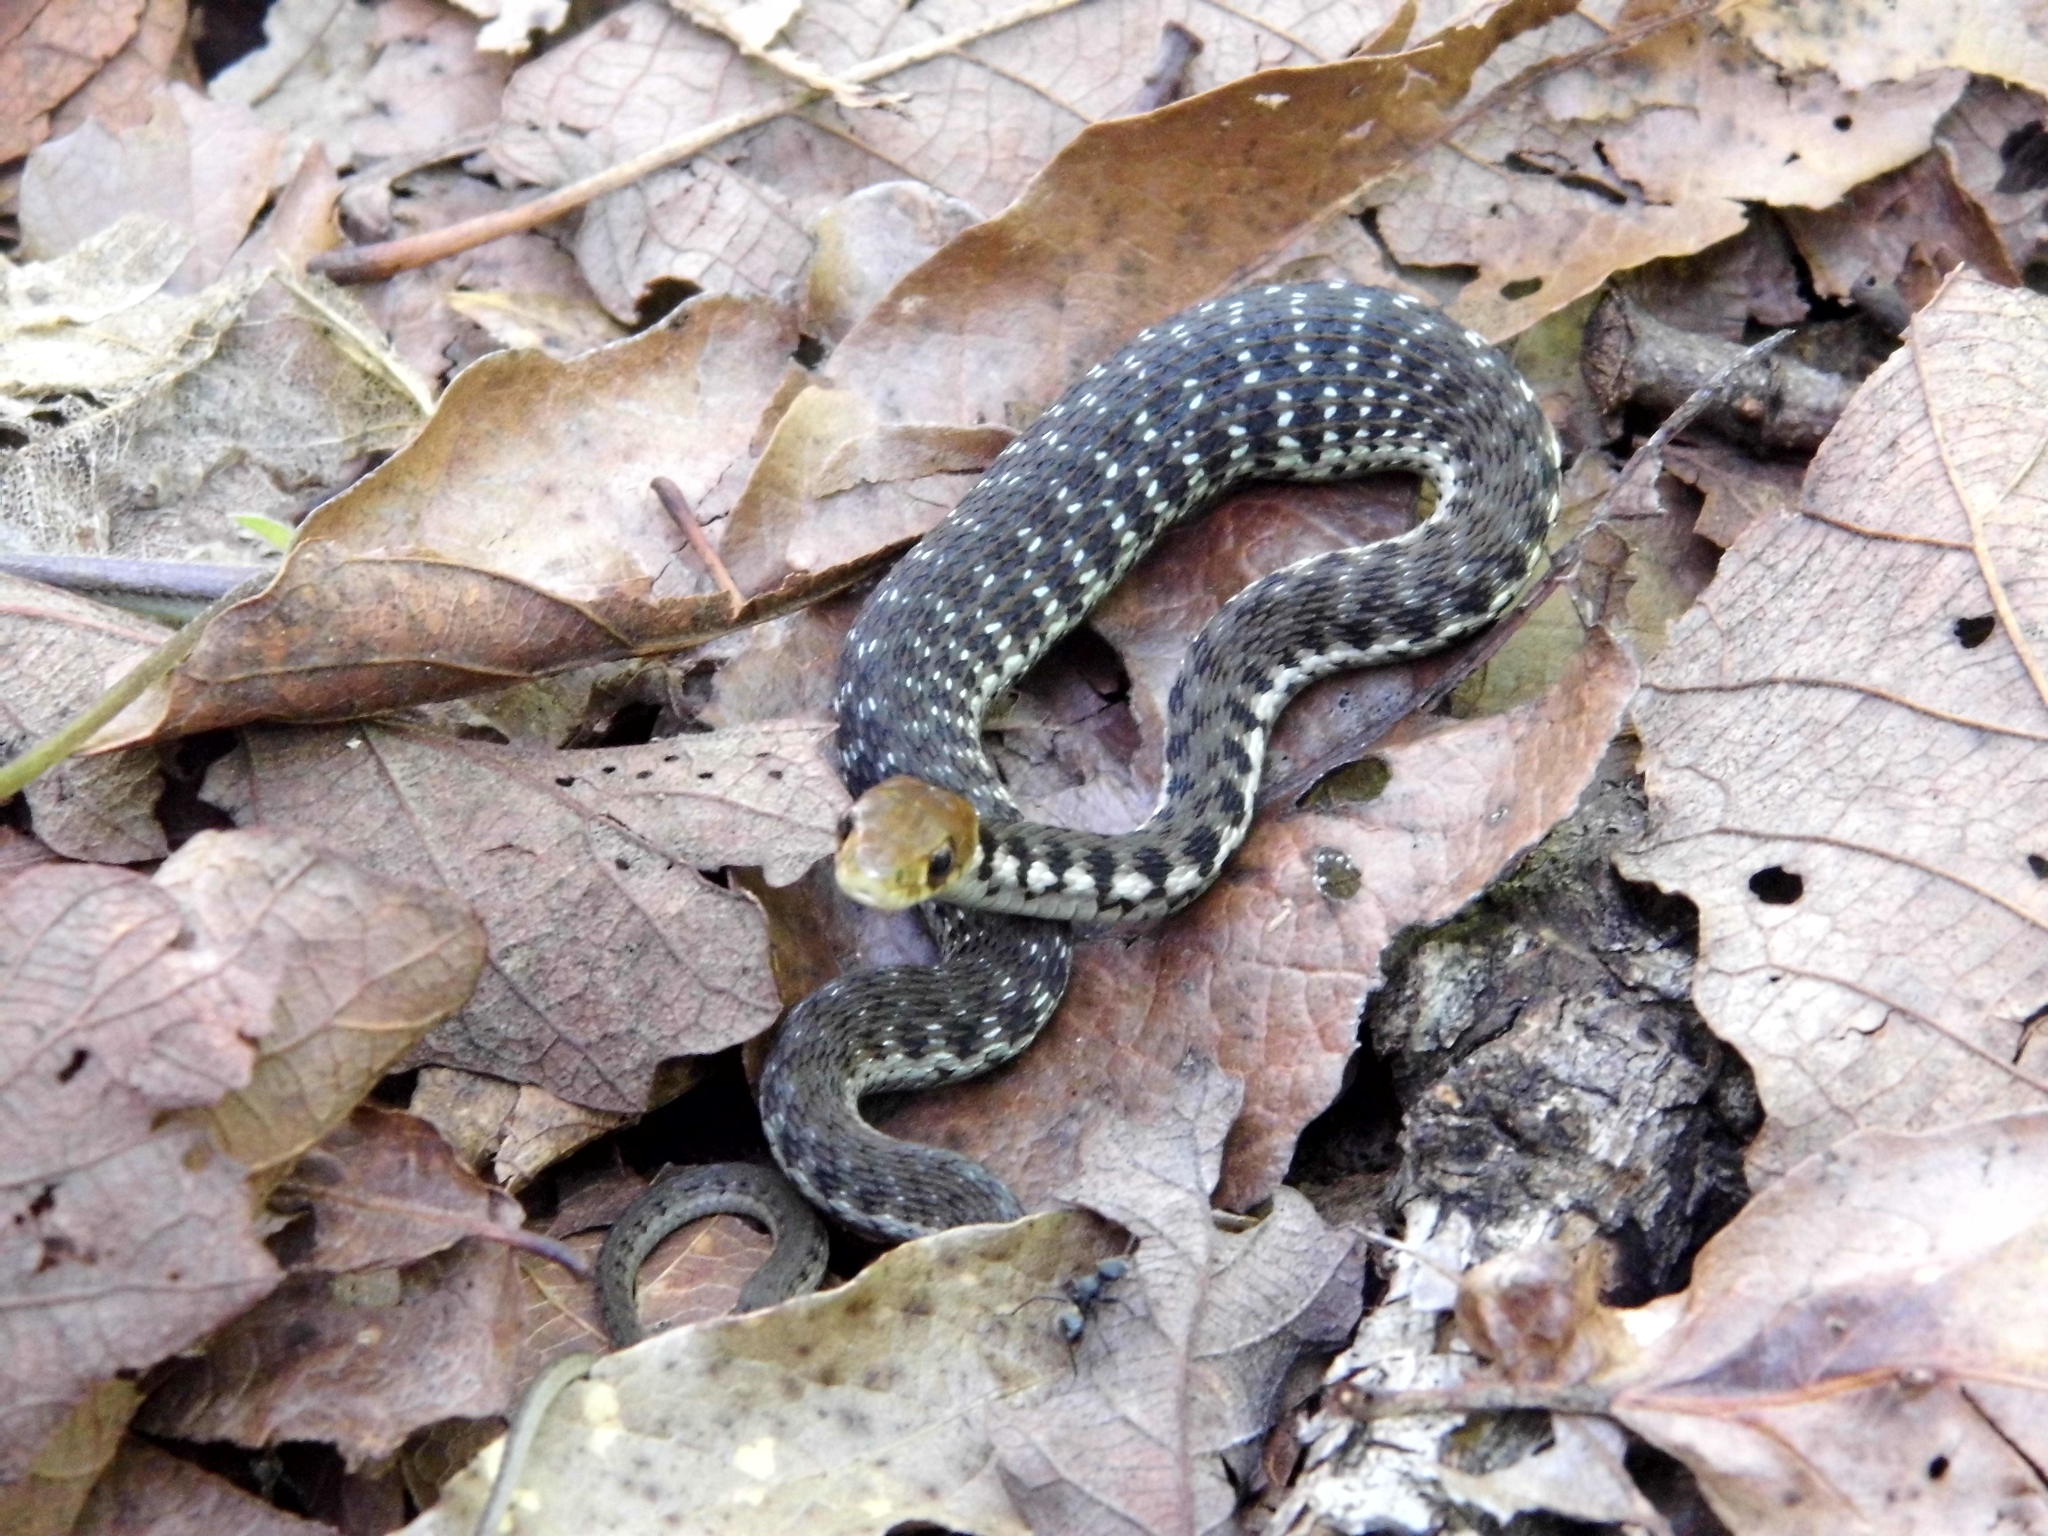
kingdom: Animalia
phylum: Chordata
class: Squamata
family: Colubridae
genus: Thamnophis
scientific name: Thamnophis chrysocephalus
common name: Goldenhead garter snake
